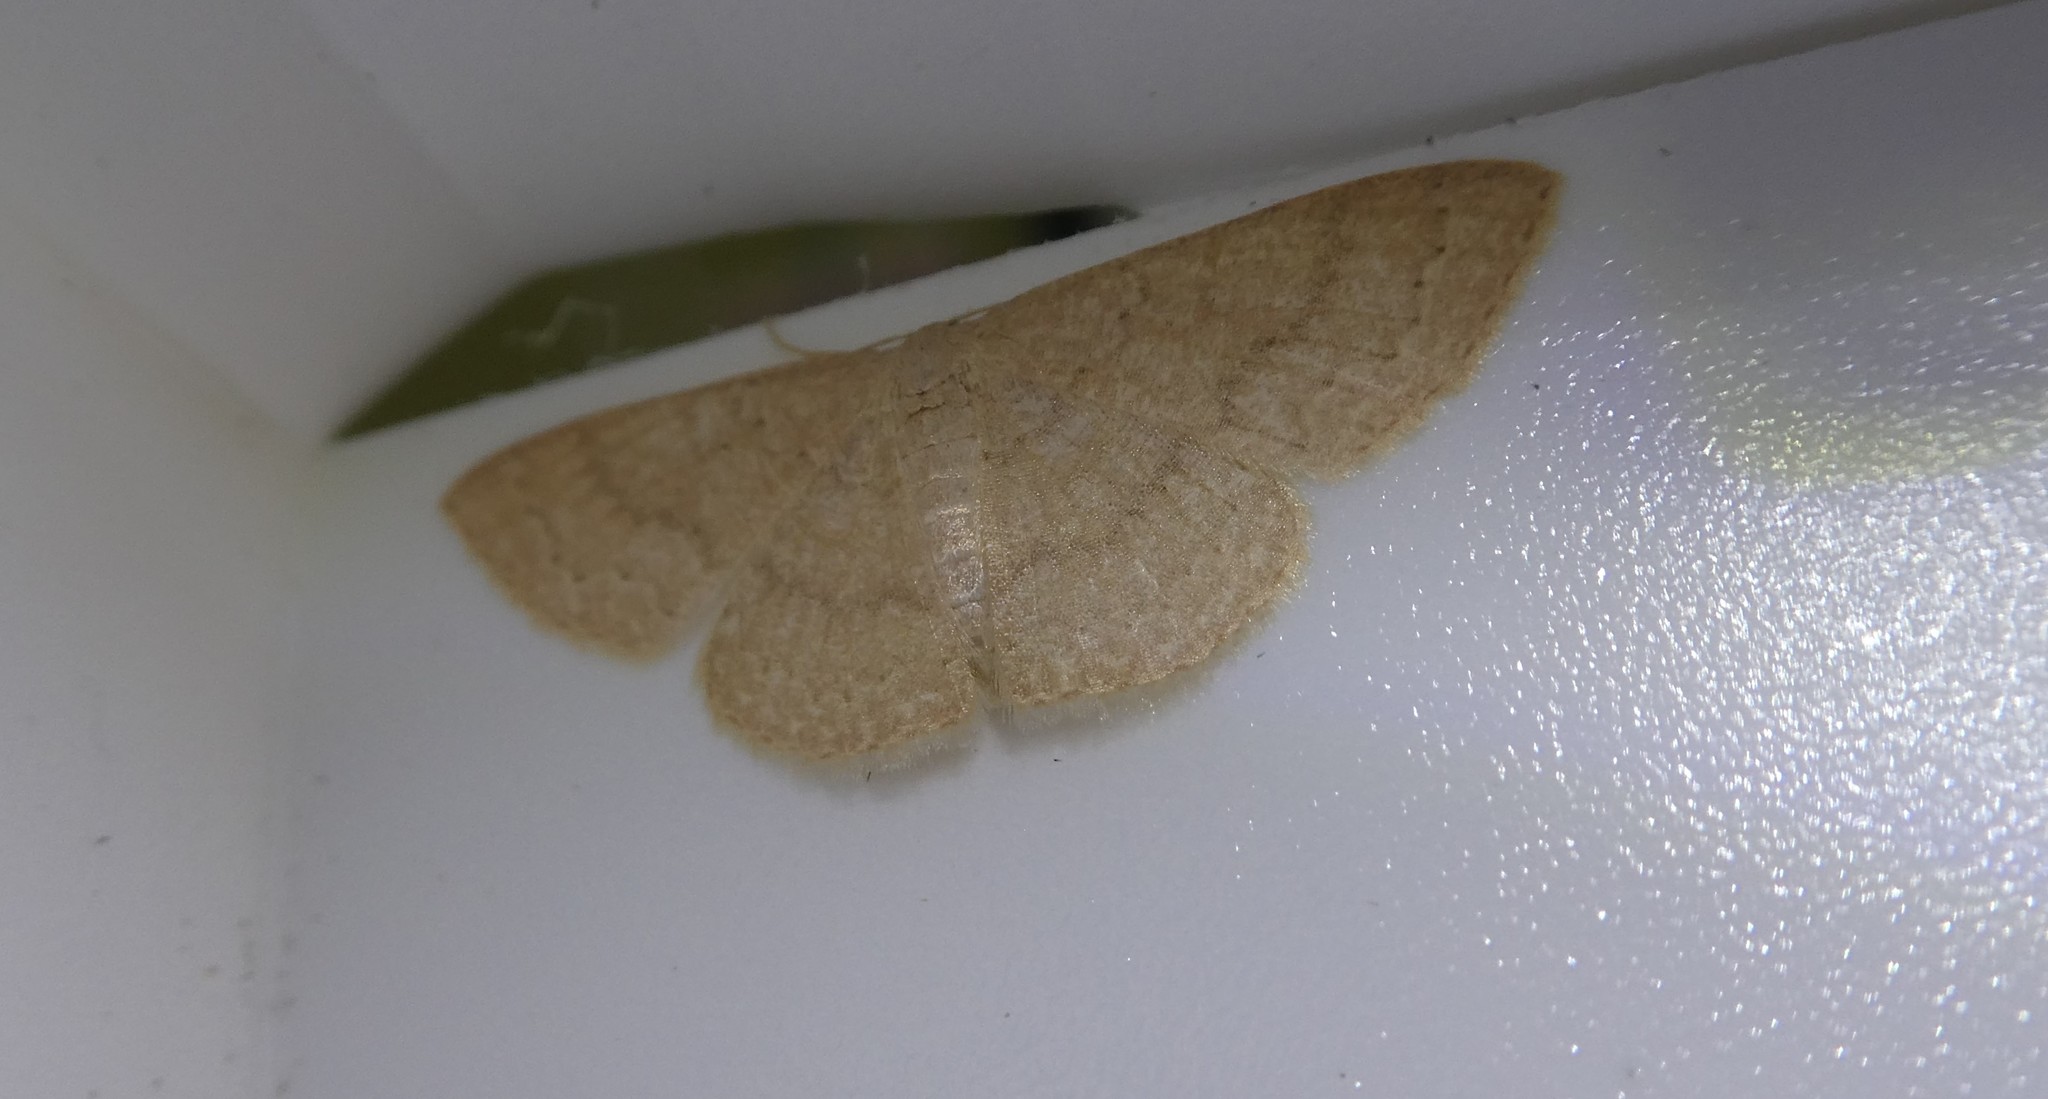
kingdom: Animalia
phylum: Arthropoda
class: Insecta
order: Lepidoptera
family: Geometridae
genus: Pleuroprucha
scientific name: Pleuroprucha insulsaria
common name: Common tan wave
